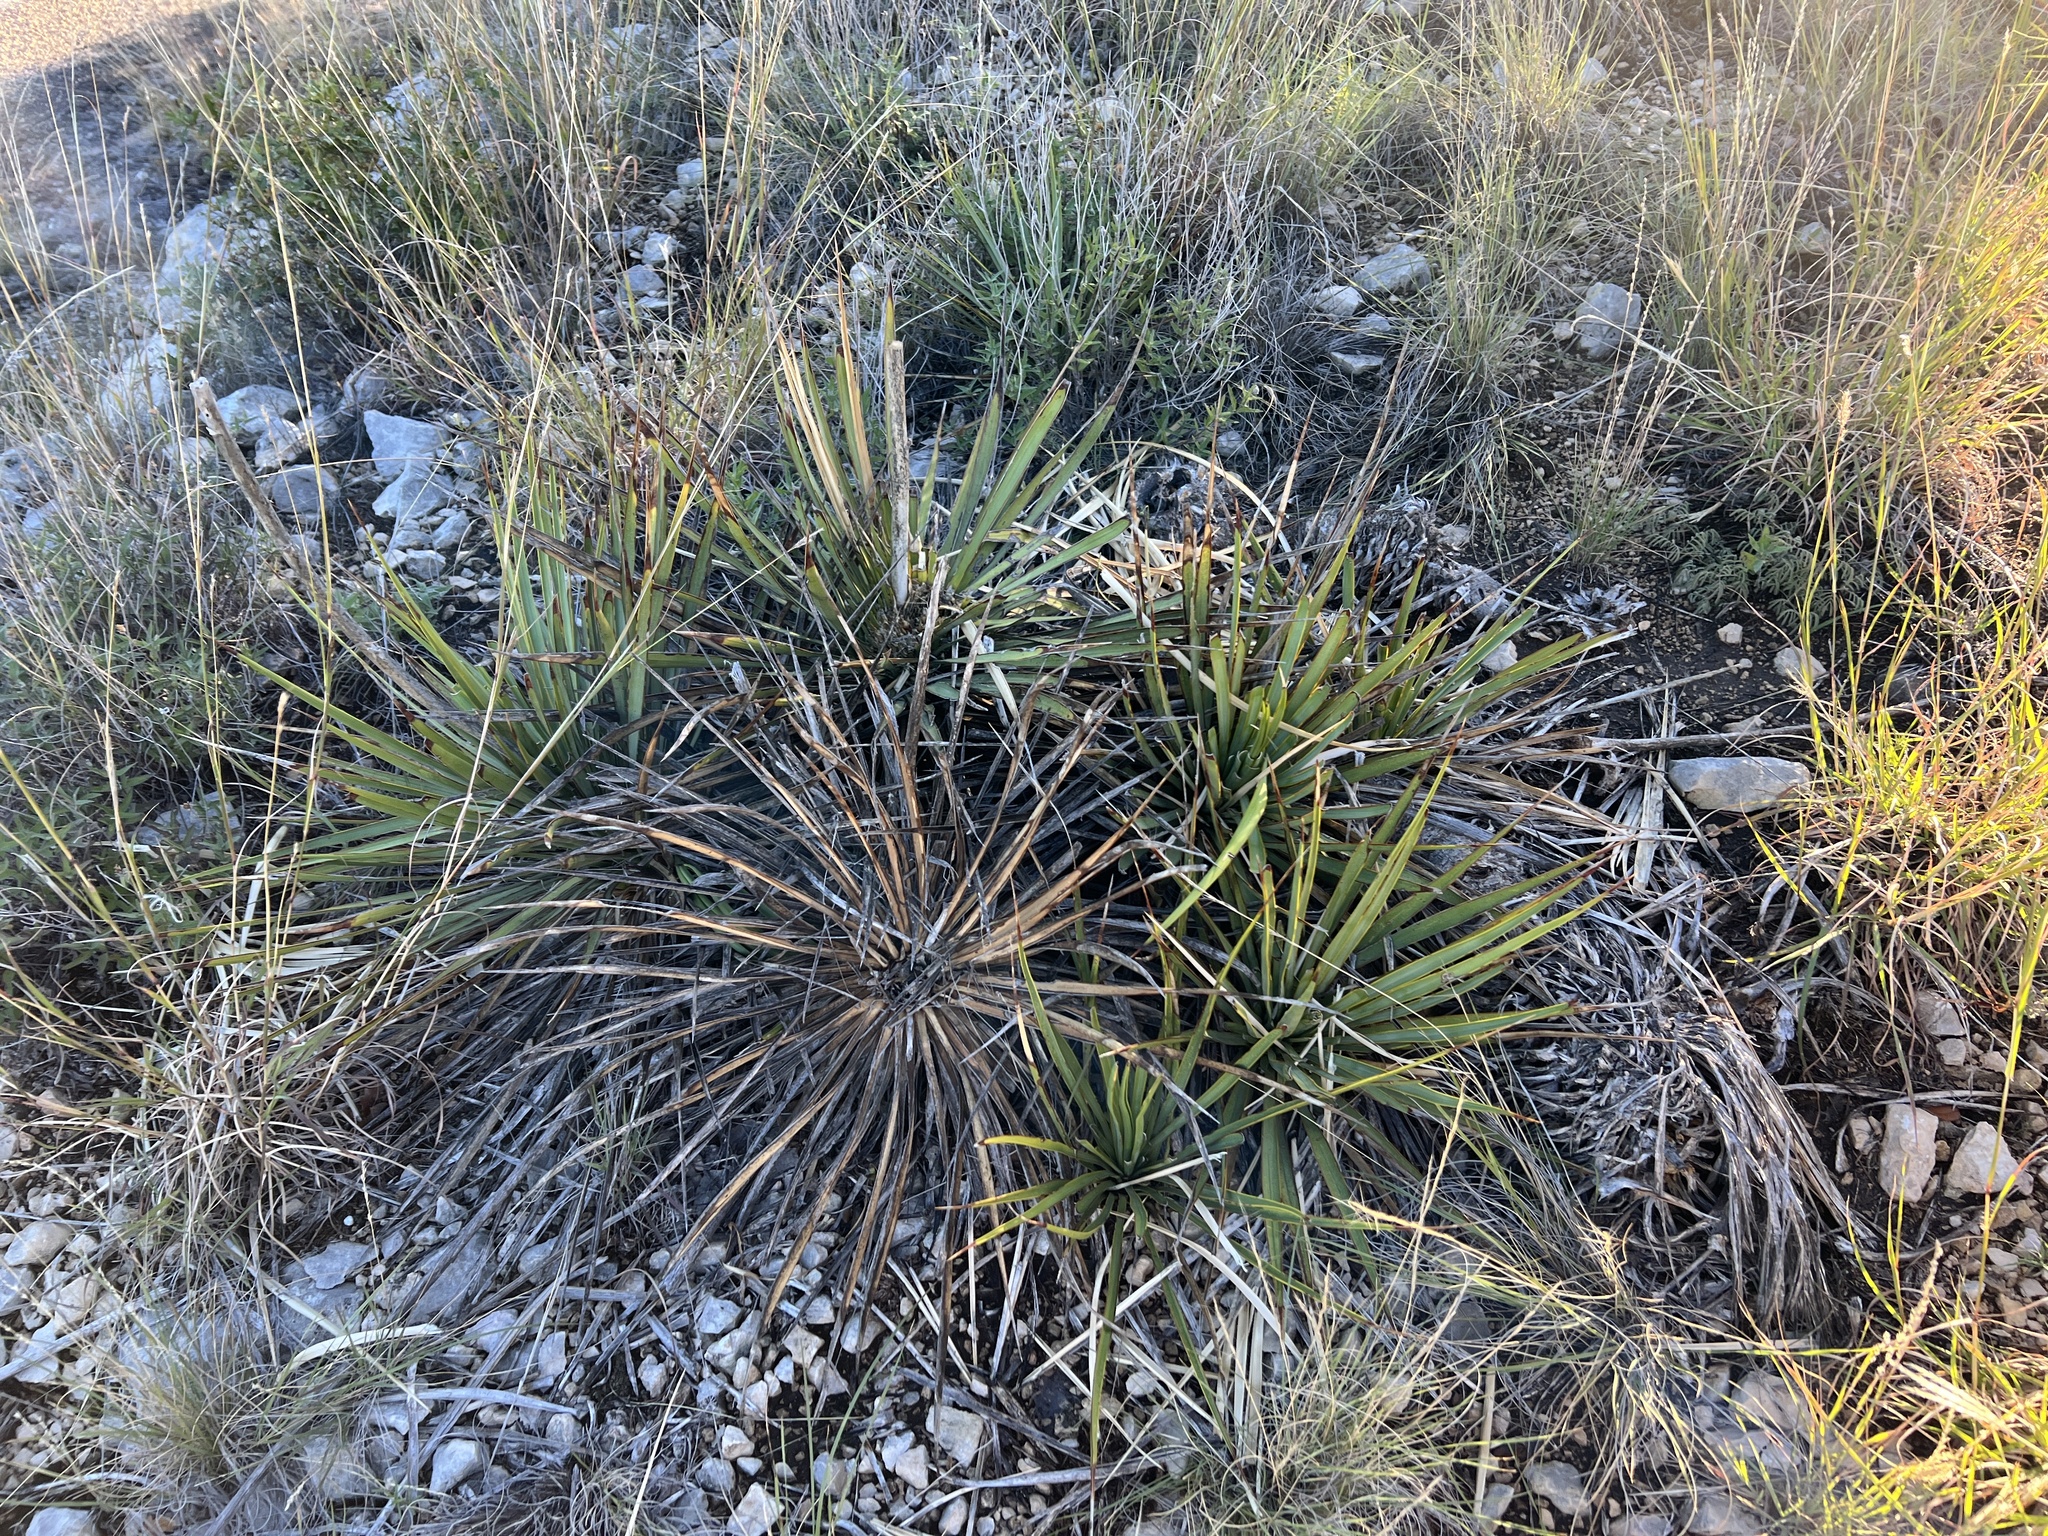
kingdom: Plantae
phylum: Tracheophyta
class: Liliopsida
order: Asparagales
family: Asparagaceae
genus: Yucca
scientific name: Yucca reverchonii
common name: San angelo yucca
